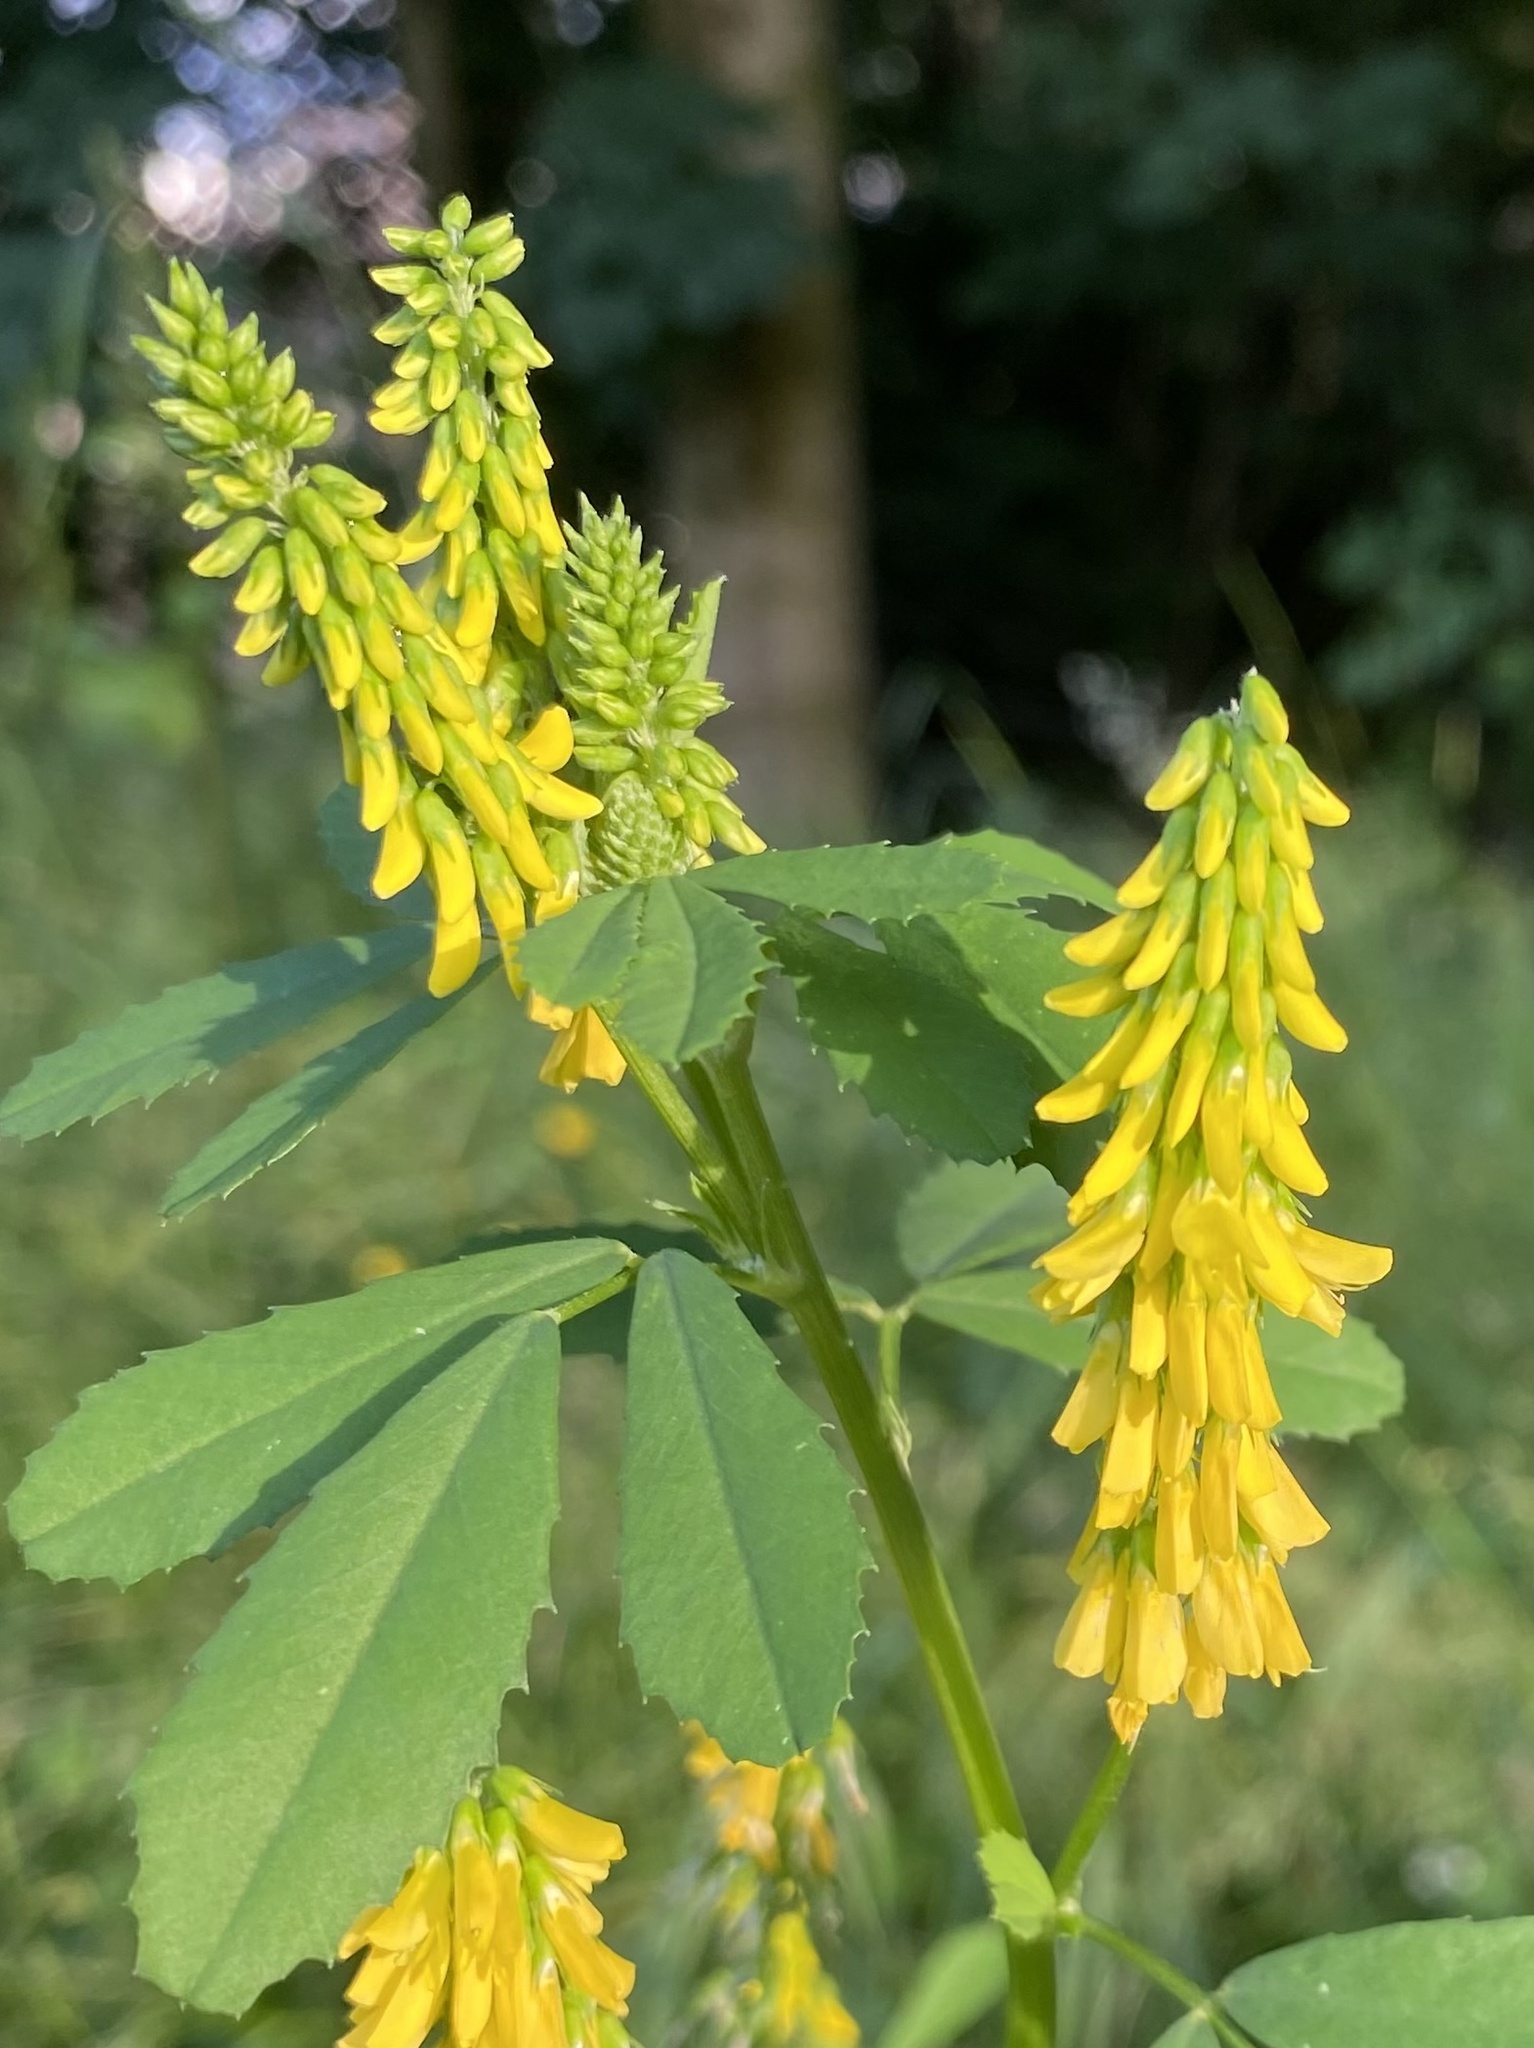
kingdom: Plantae
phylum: Tracheophyta
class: Magnoliopsida
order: Fabales
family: Fabaceae
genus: Melilotus
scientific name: Melilotus officinalis
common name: Sweetclover
